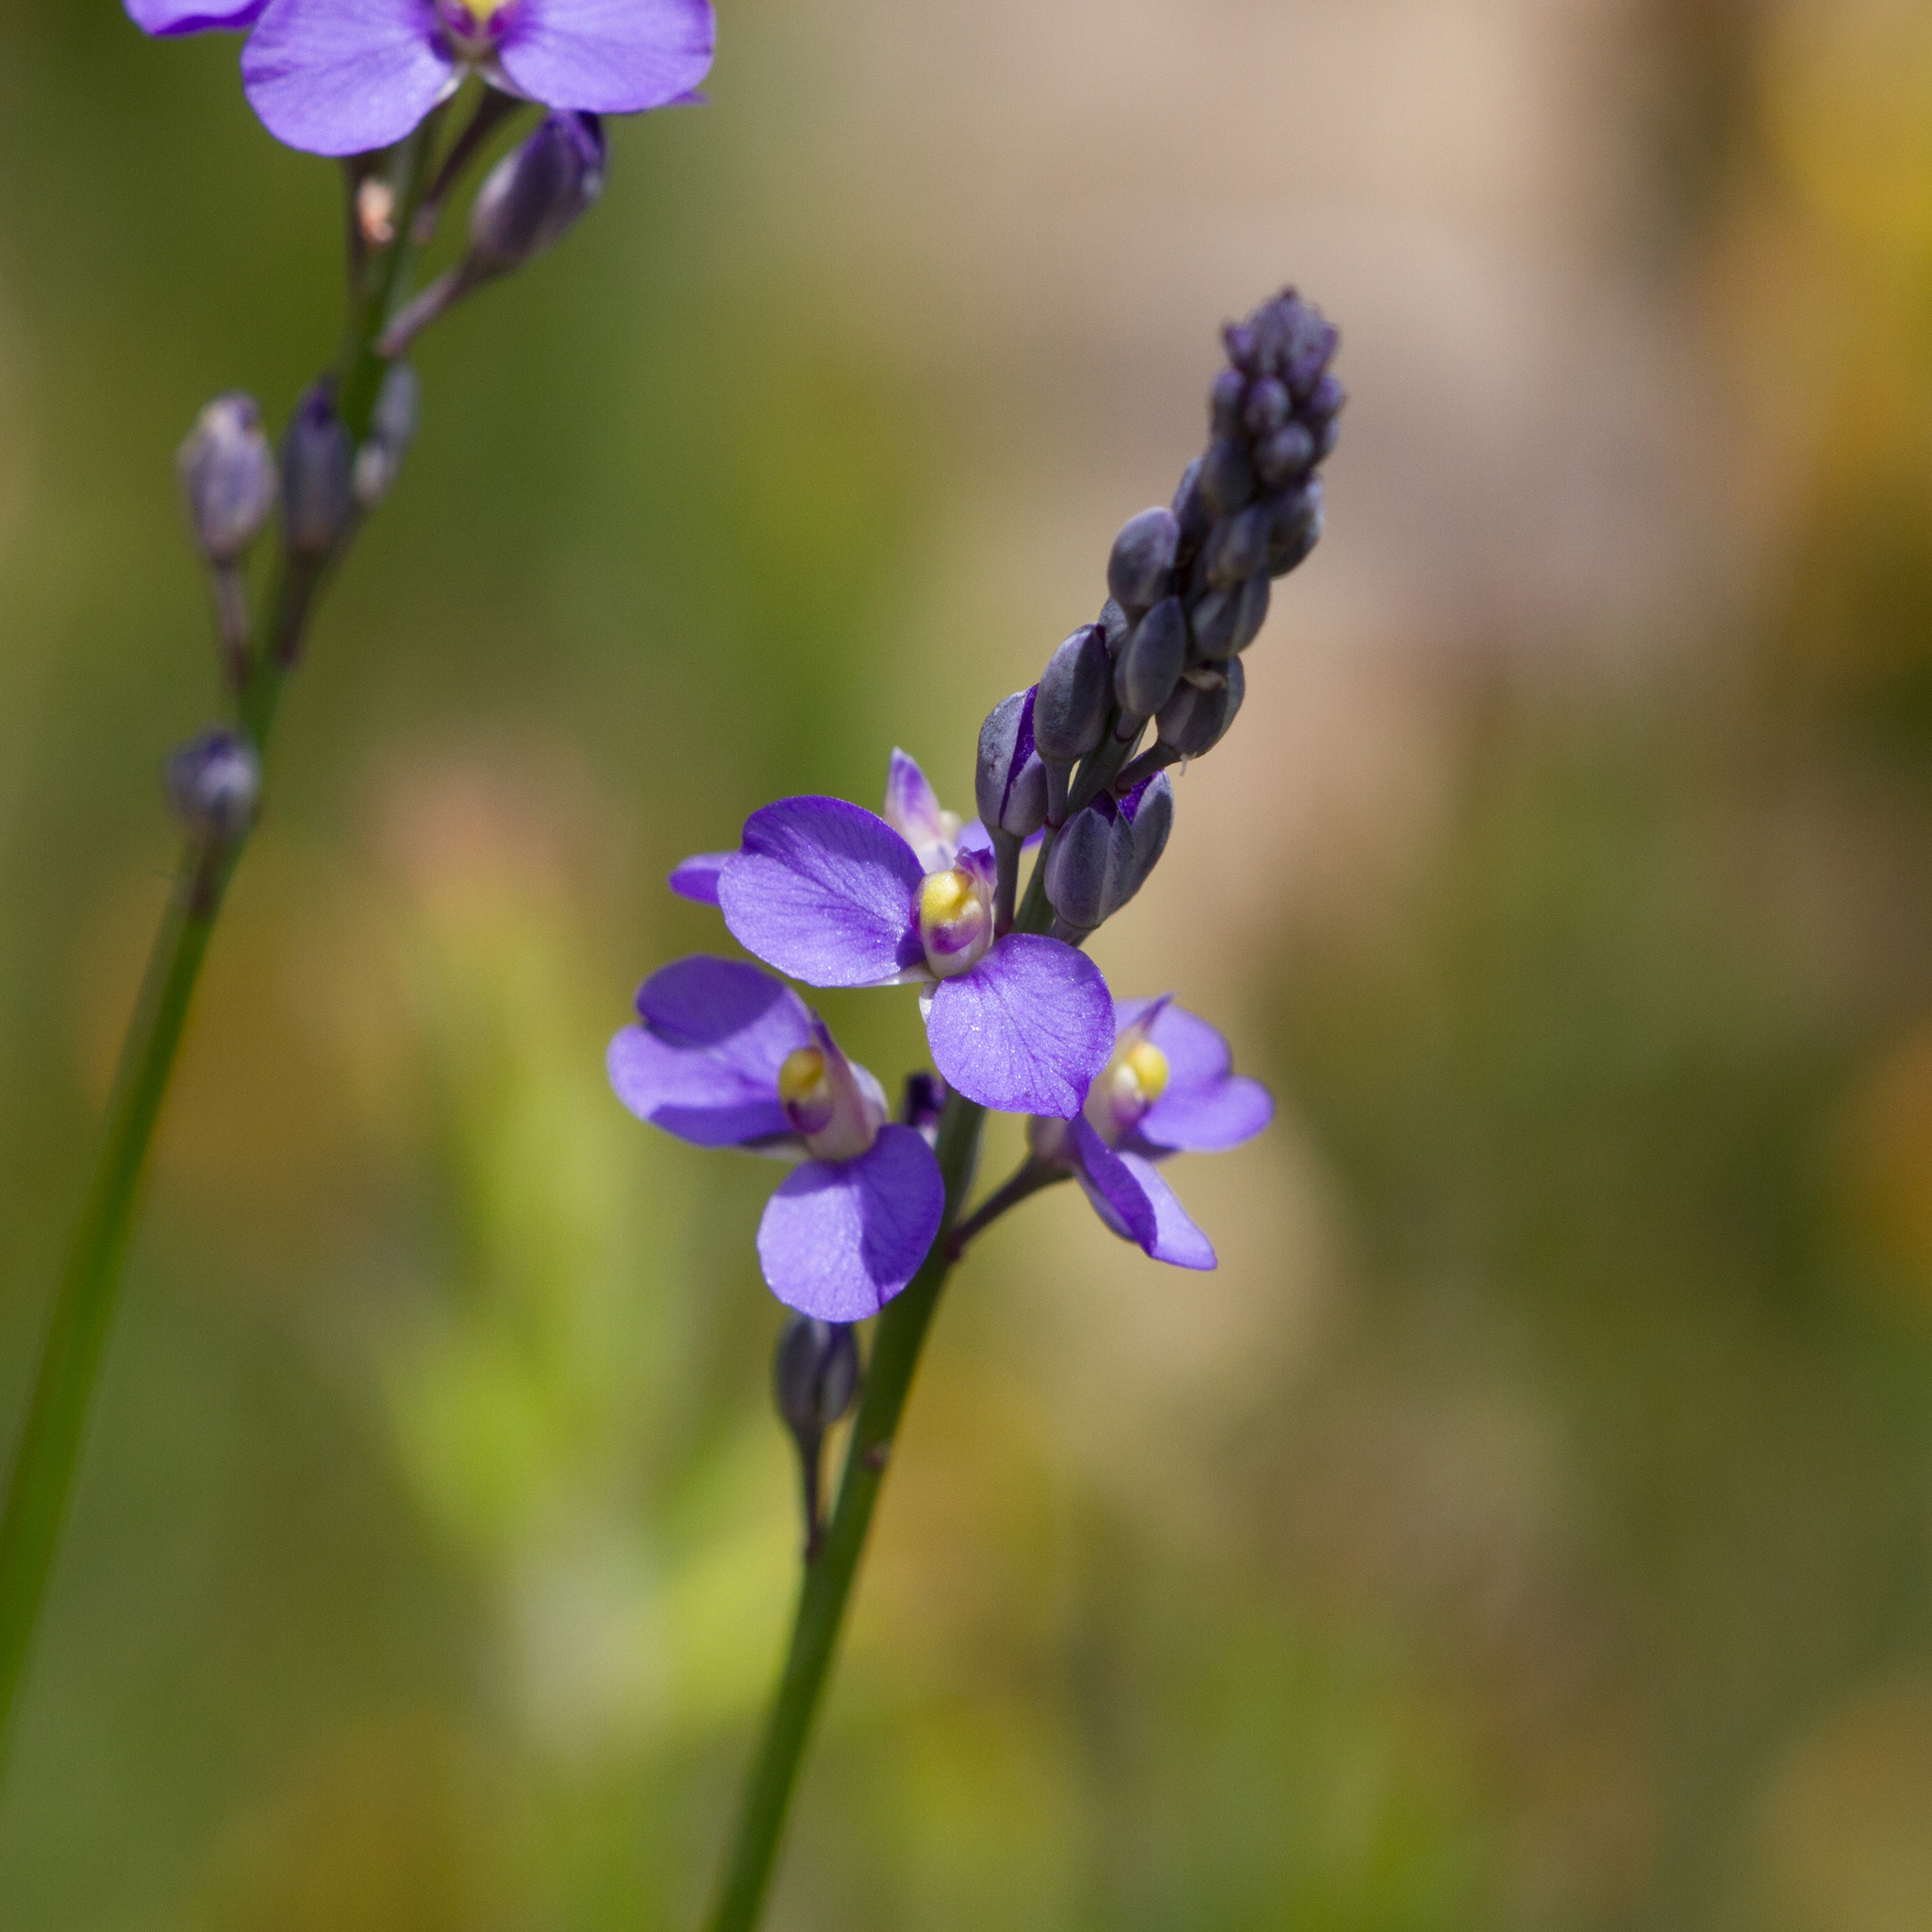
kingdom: Plantae
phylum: Tracheophyta
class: Magnoliopsida
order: Fabales
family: Polygalaceae
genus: Comesperma
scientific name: Comesperma calymega
